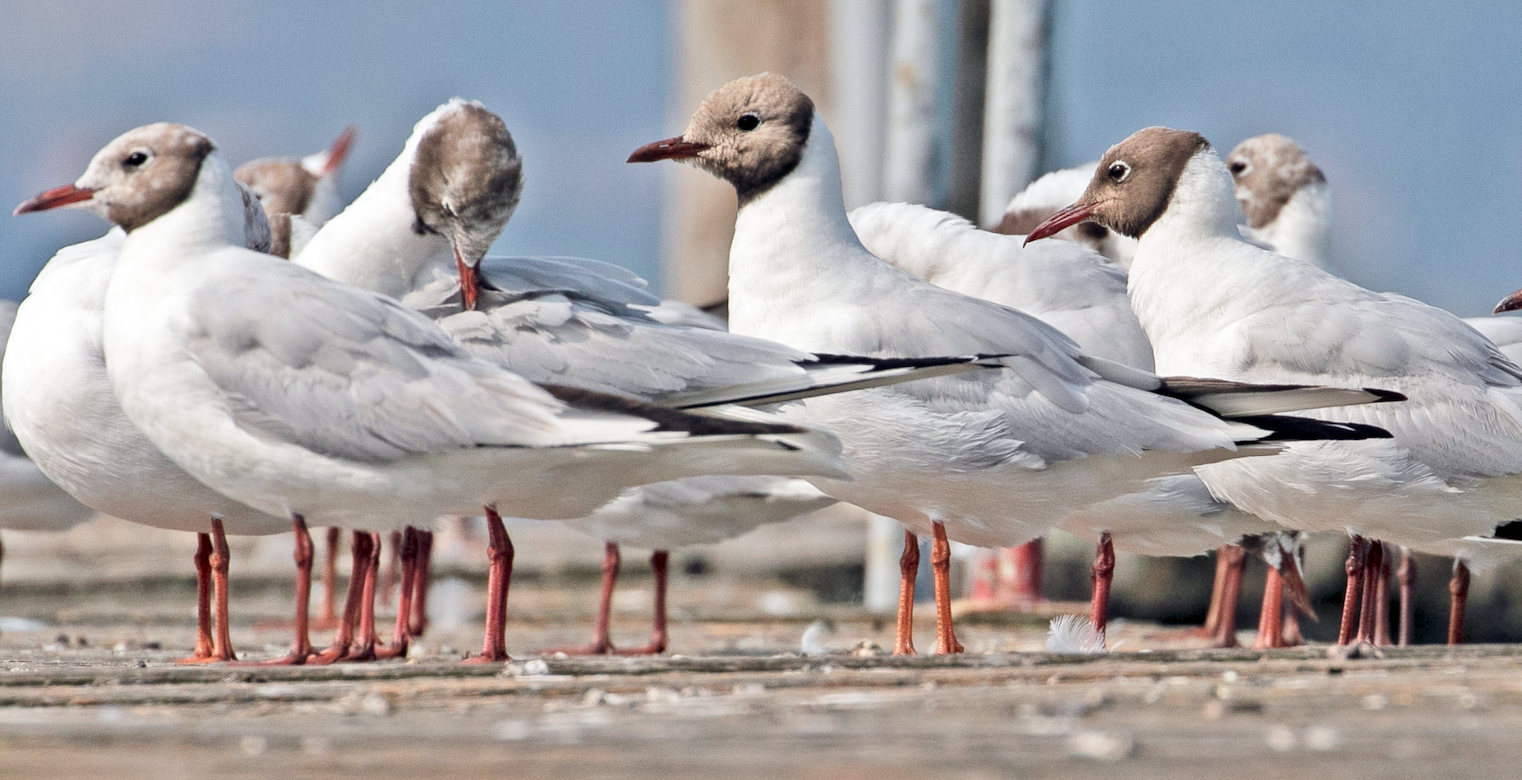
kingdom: Animalia
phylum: Chordata
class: Aves
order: Charadriiformes
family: Laridae
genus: Chroicocephalus
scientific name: Chroicocephalus ridibundus
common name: Black-headed gull
